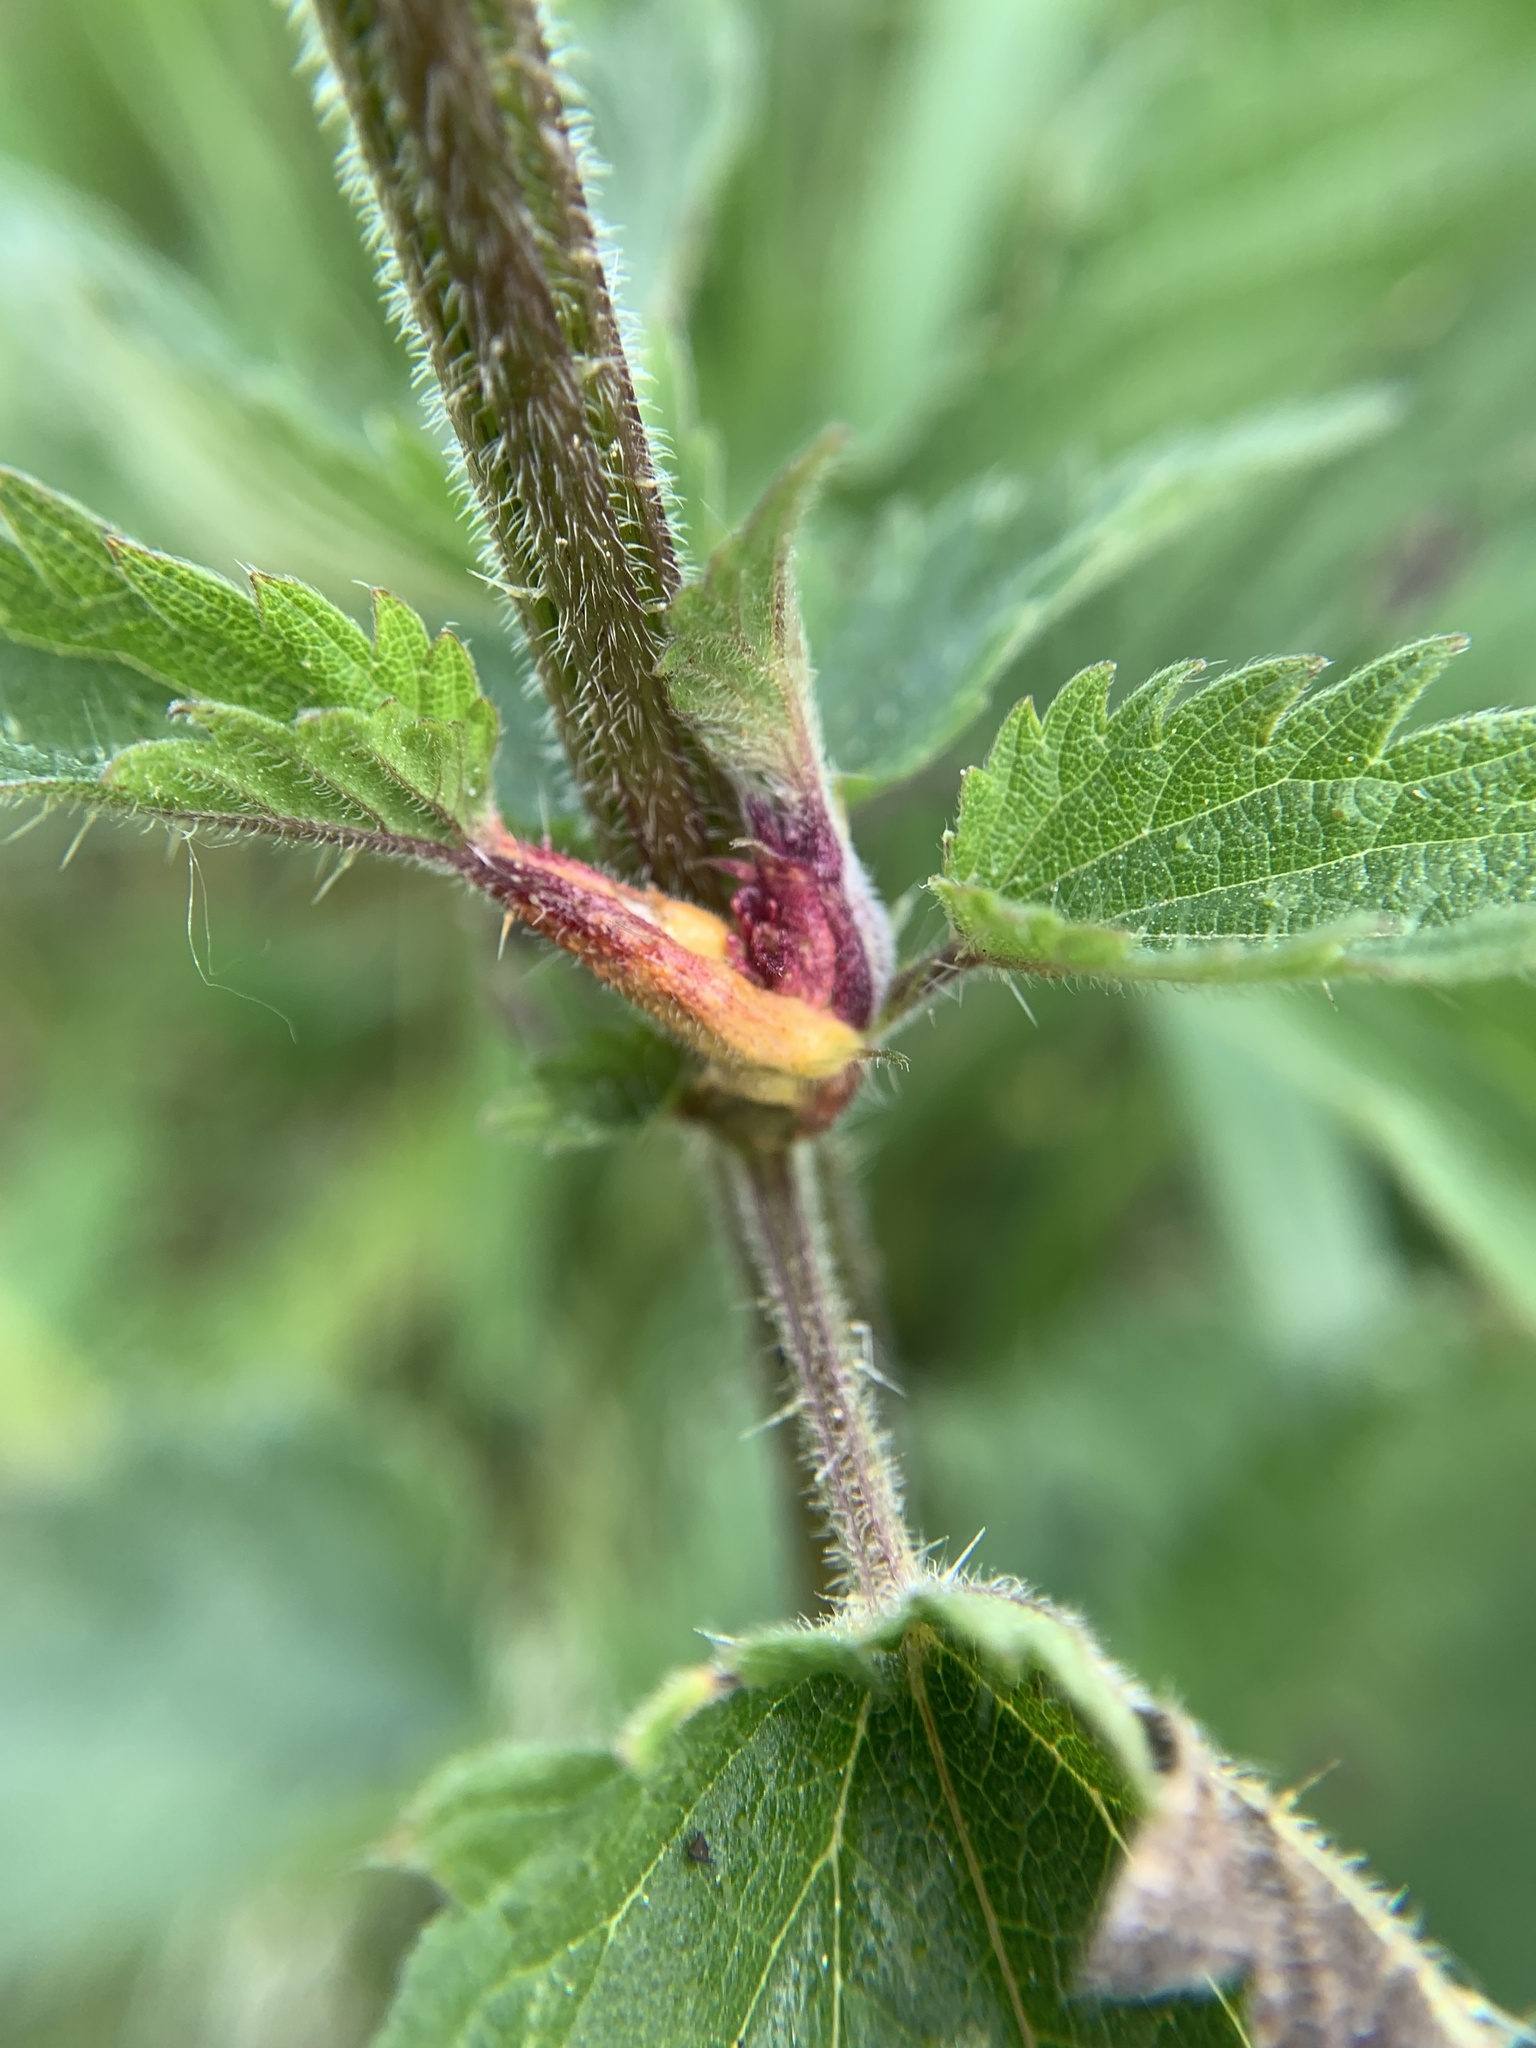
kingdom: Fungi
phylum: Basidiomycota
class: Pucciniomycetes
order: Pucciniales
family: Pucciniaceae
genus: Puccinia
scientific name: Puccinia urticata
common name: Nettle clustercup rust fungus
